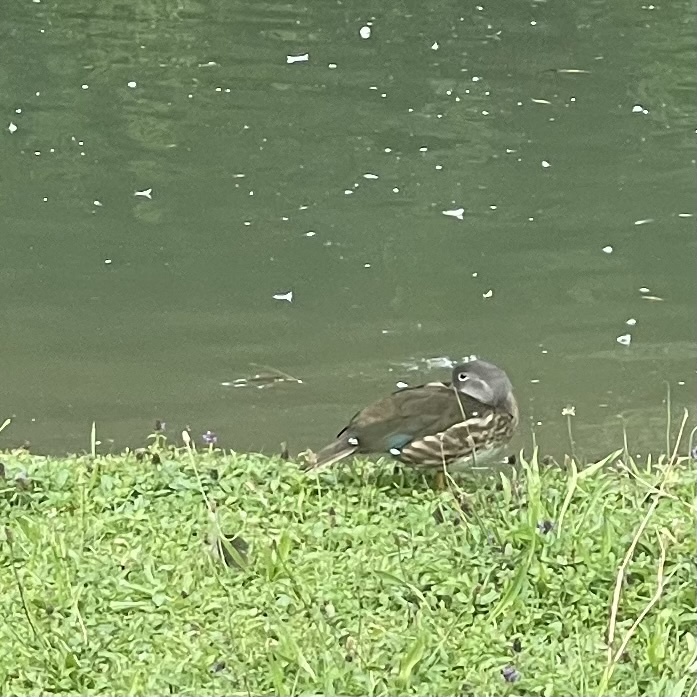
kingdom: Animalia
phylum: Chordata
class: Aves
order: Anseriformes
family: Anatidae
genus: Aix
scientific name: Aix galericulata
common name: Mandarin duck
